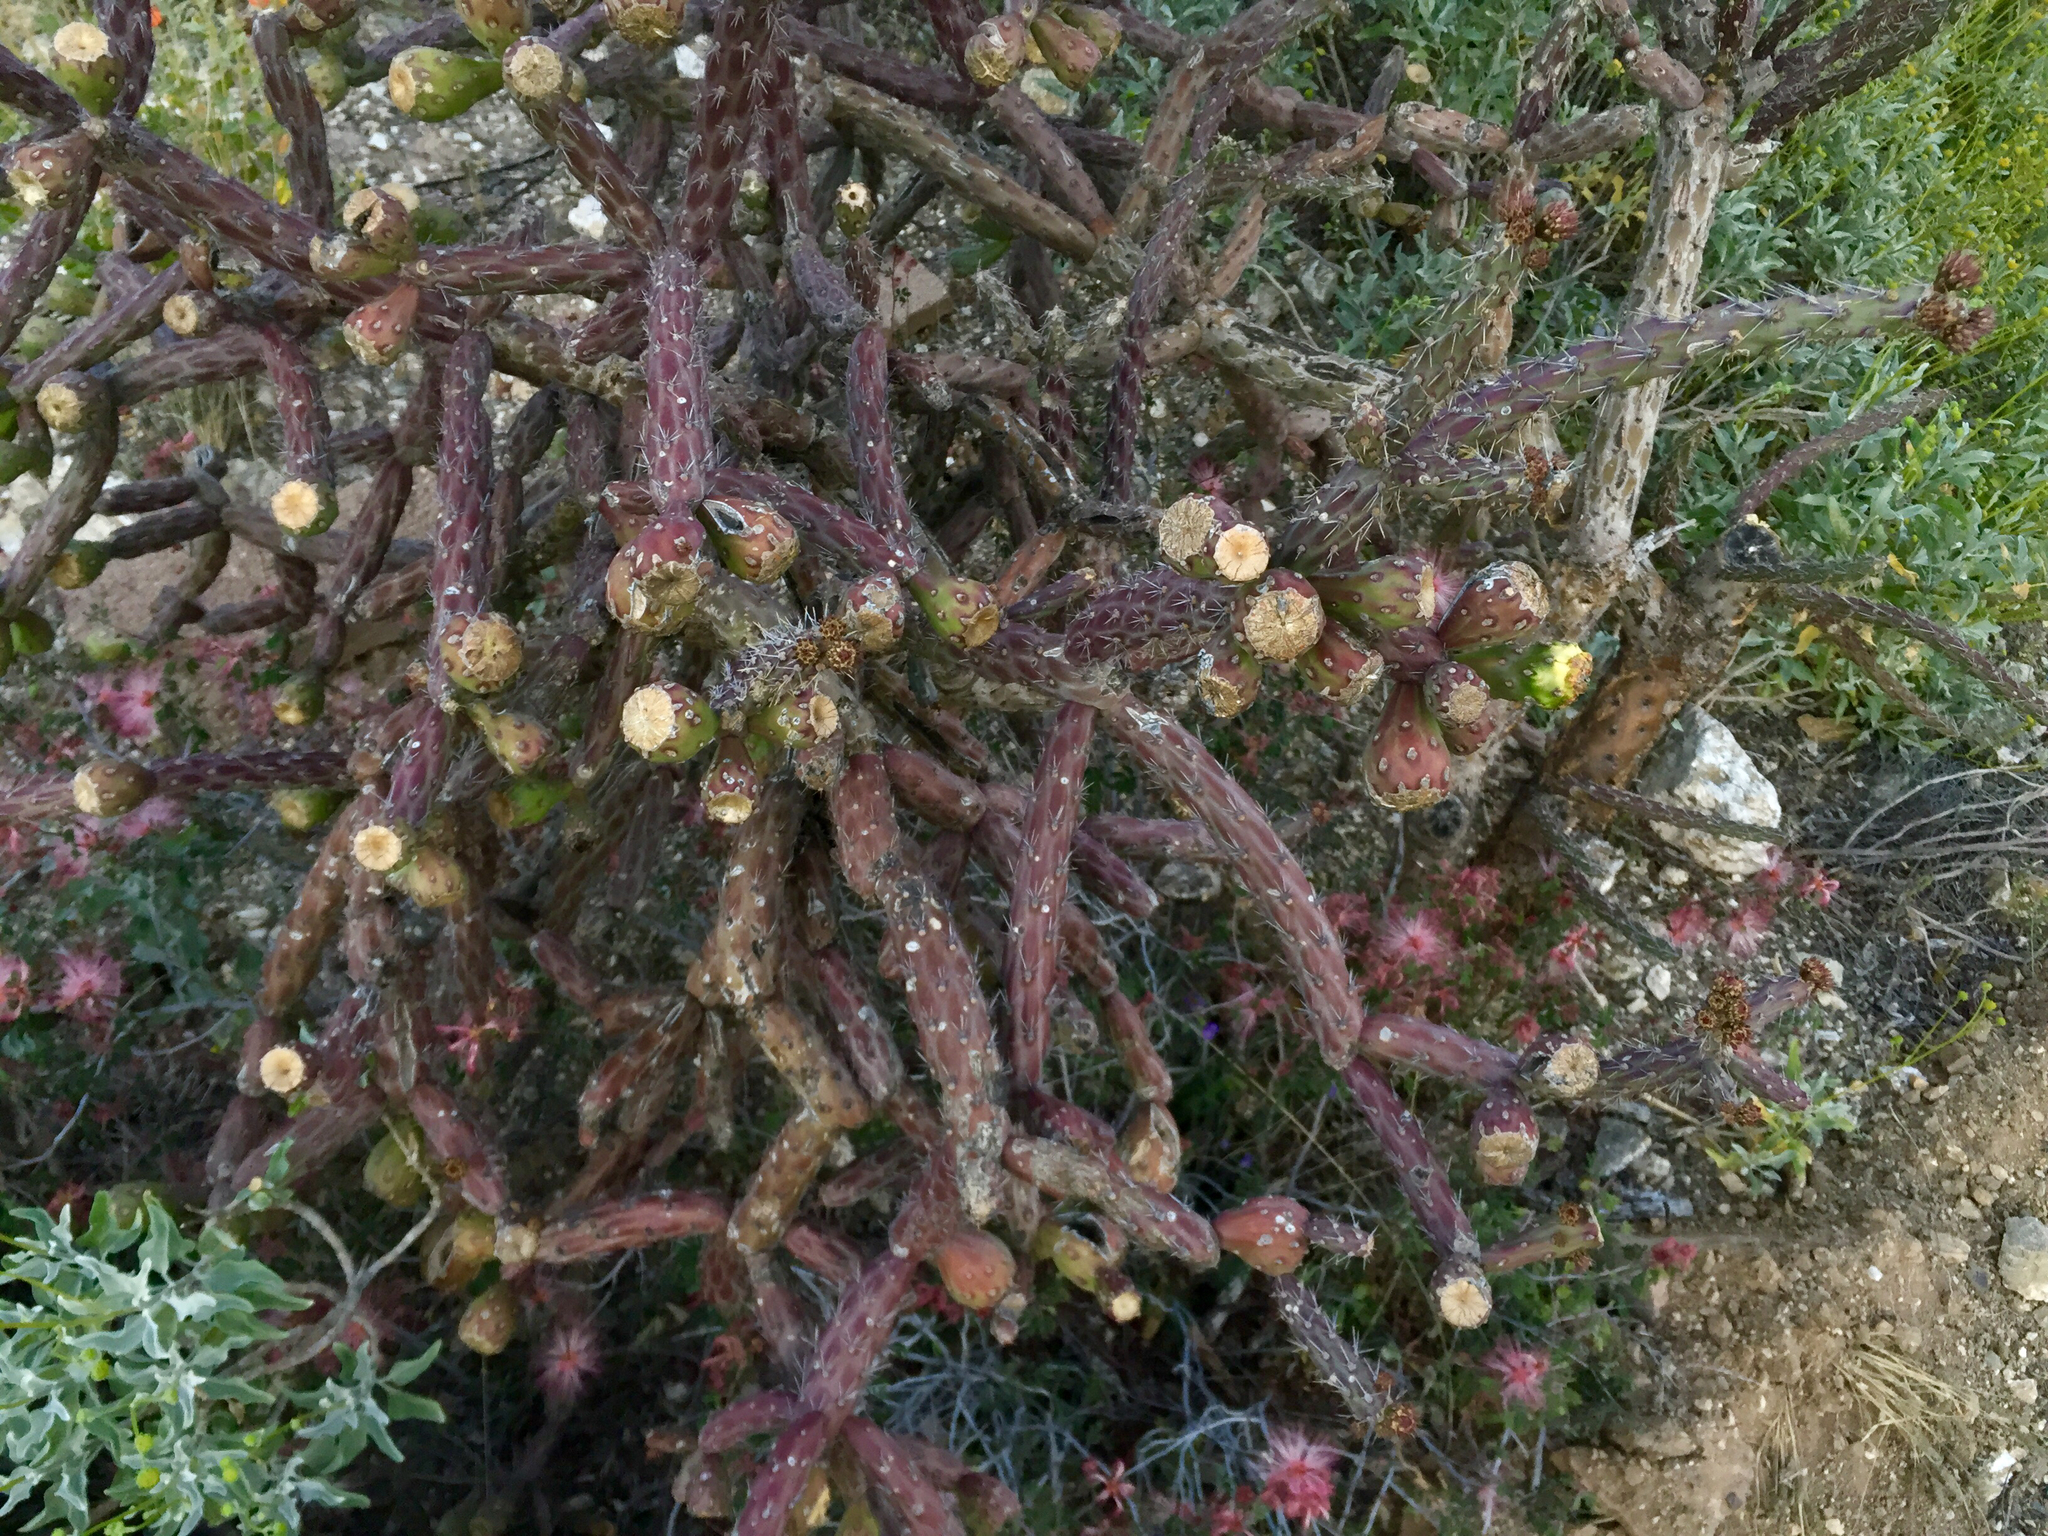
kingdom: Plantae
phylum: Tracheophyta
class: Magnoliopsida
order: Caryophyllales
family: Cactaceae
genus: Cylindropuntia
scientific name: Cylindropuntia thurberi
